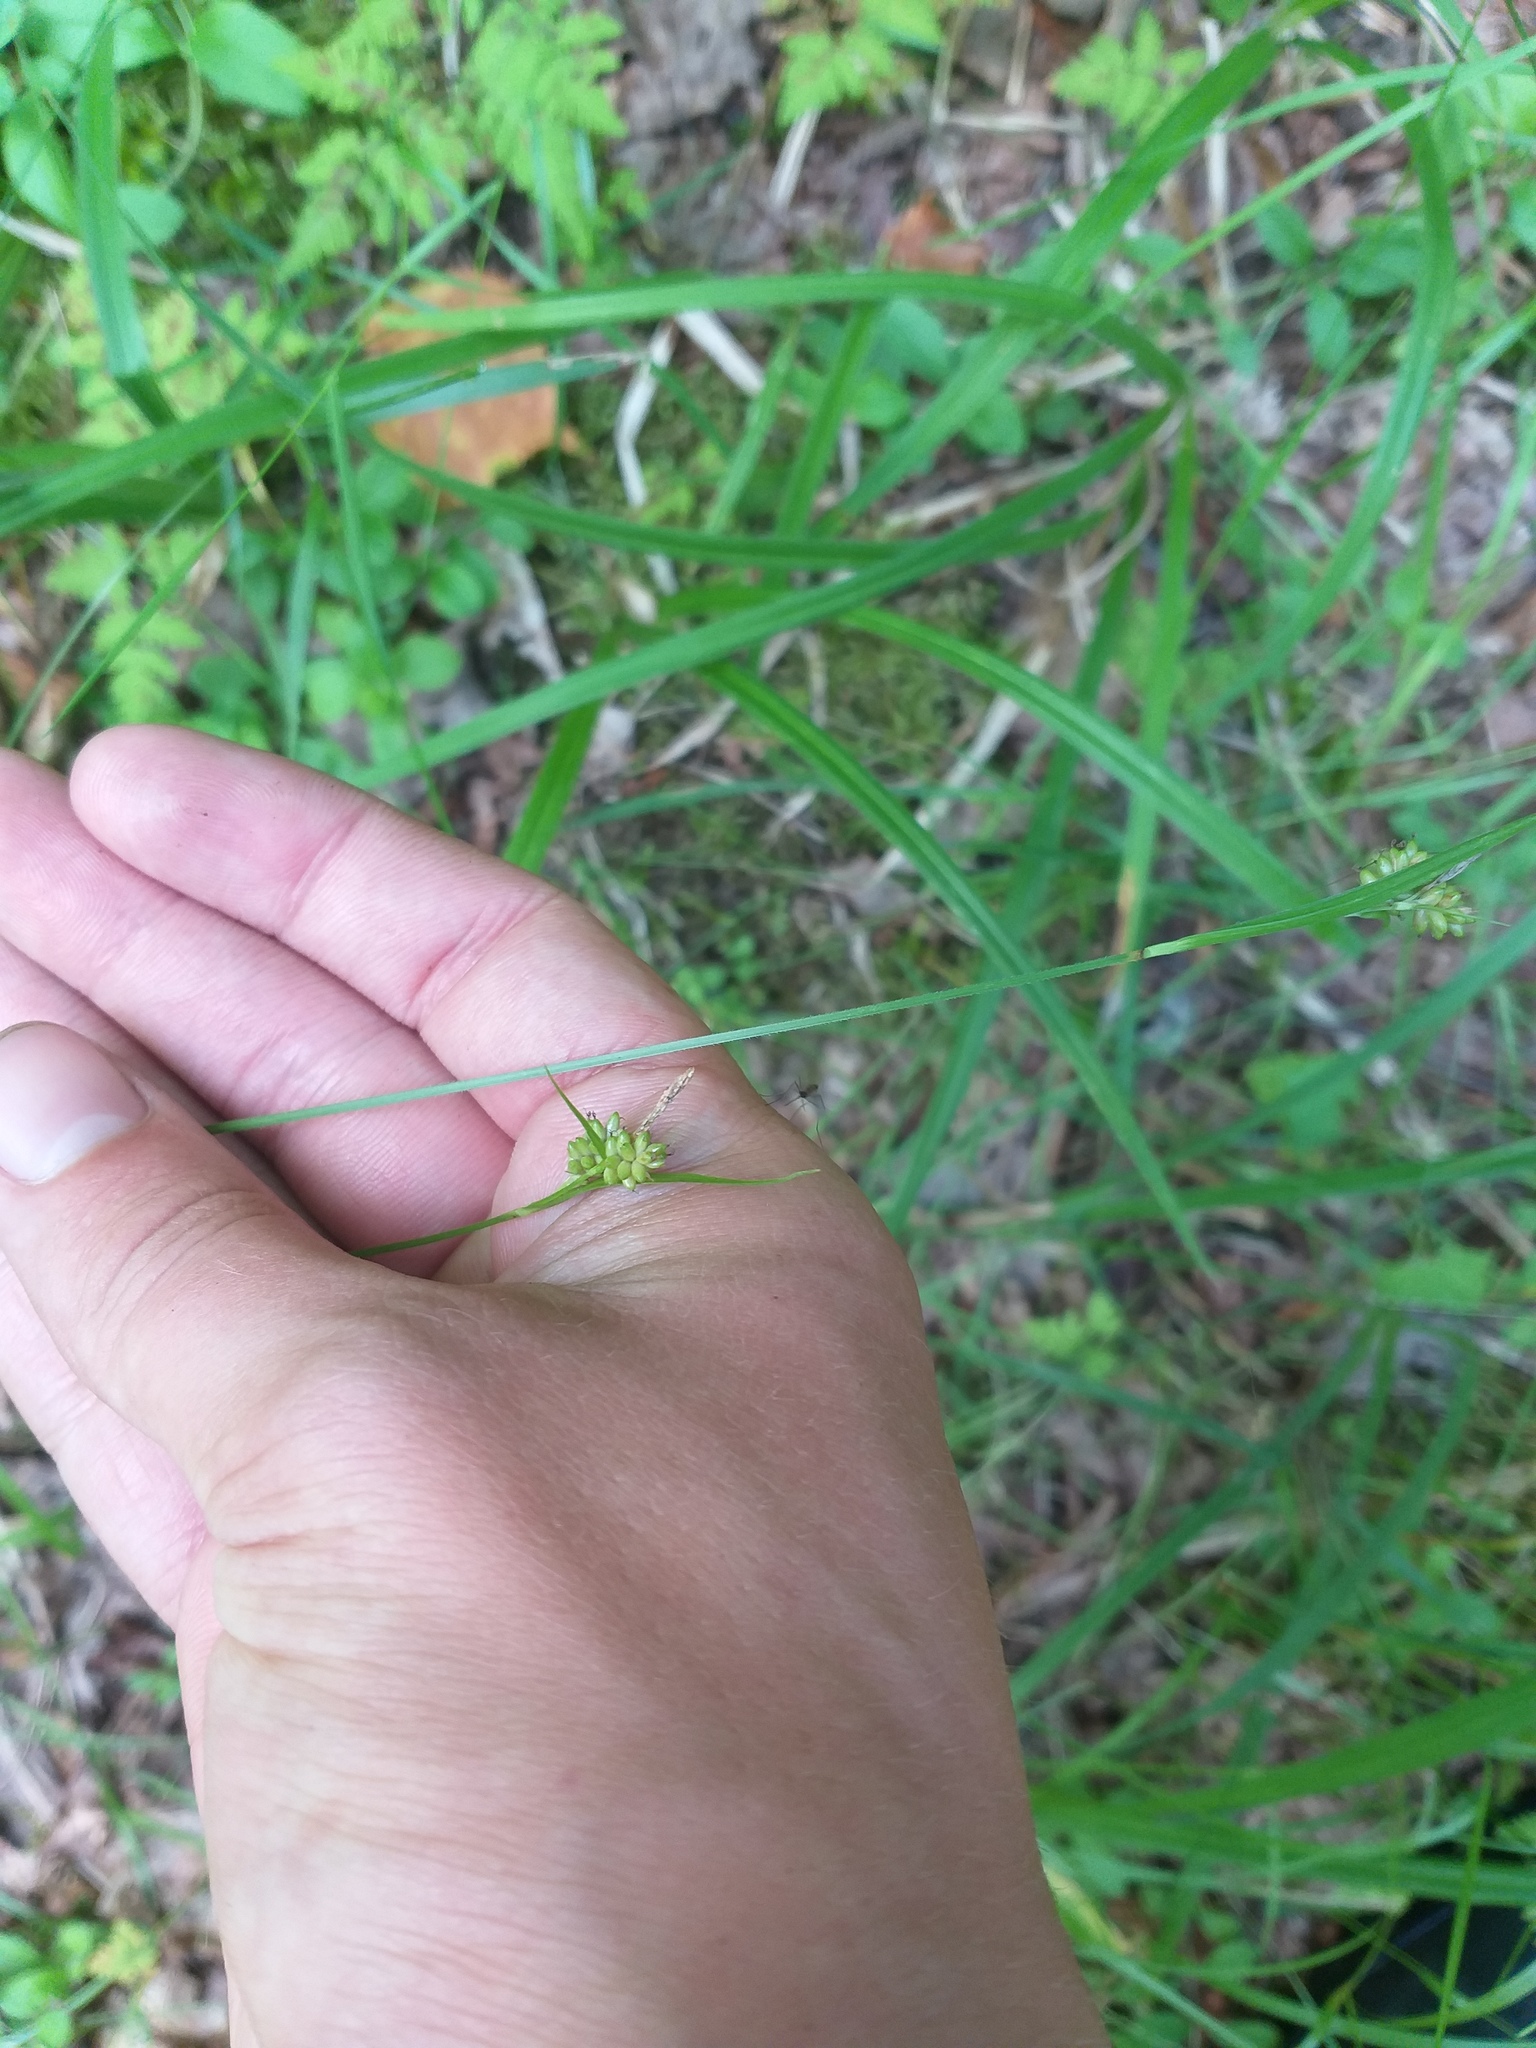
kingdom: Plantae
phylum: Tracheophyta
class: Liliopsida
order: Poales
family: Cyperaceae
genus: Carex
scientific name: Carex pallescens
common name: Pale sedge
